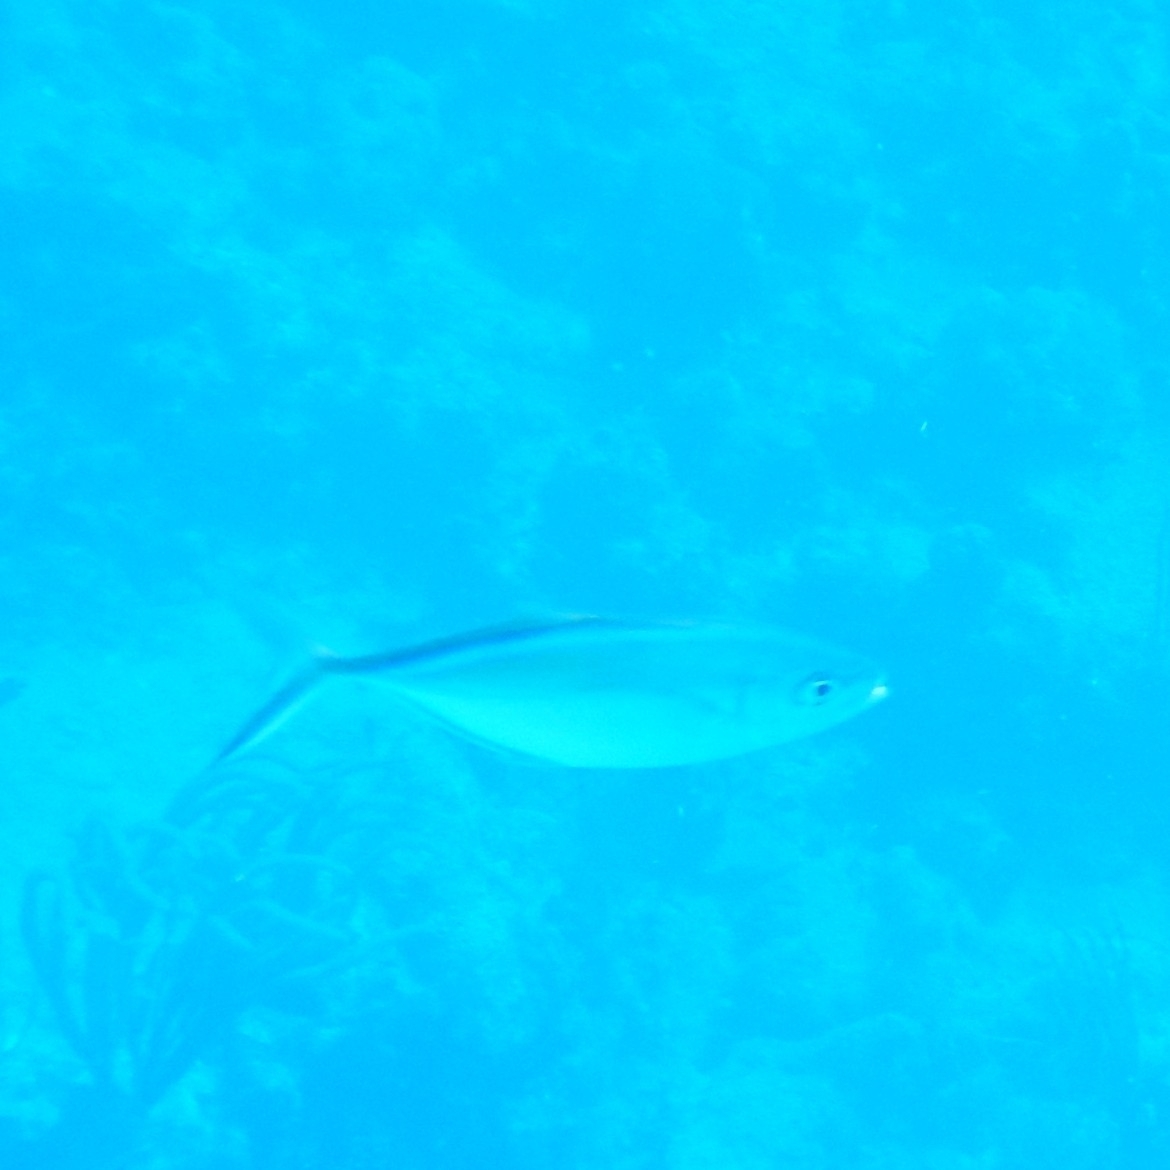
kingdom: Animalia
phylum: Chordata
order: Perciformes
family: Carangidae
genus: Caranx
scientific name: Caranx ruber
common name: Bar jack
